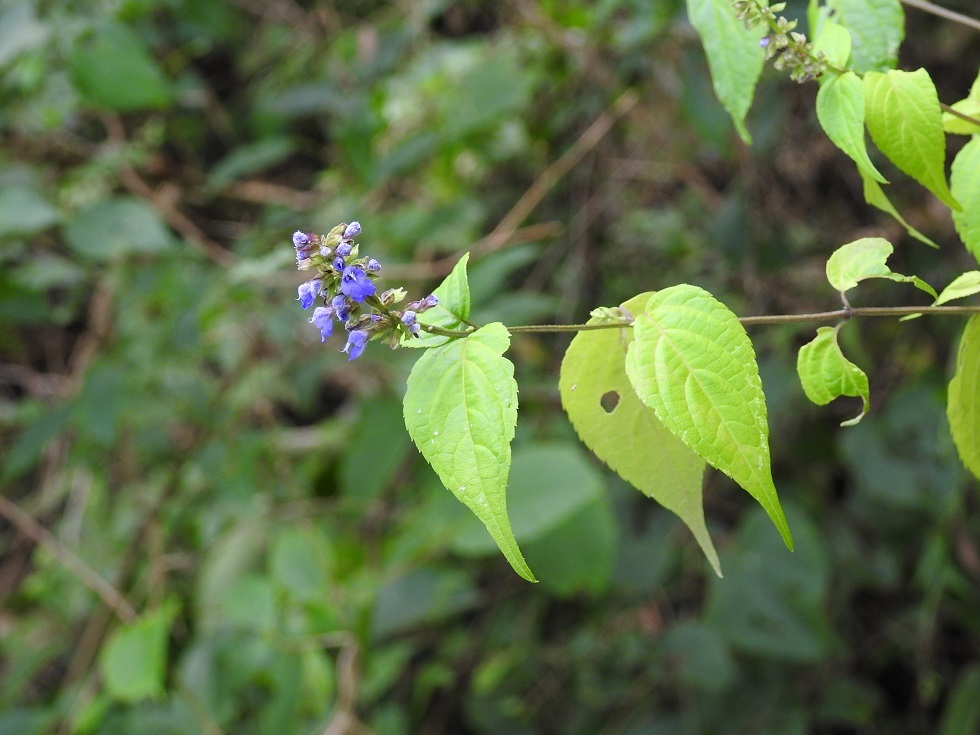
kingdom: Plantae
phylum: Tracheophyta
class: Magnoliopsida
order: Lamiales
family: Lamiaceae
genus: Salvia
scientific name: Salvia connivens
